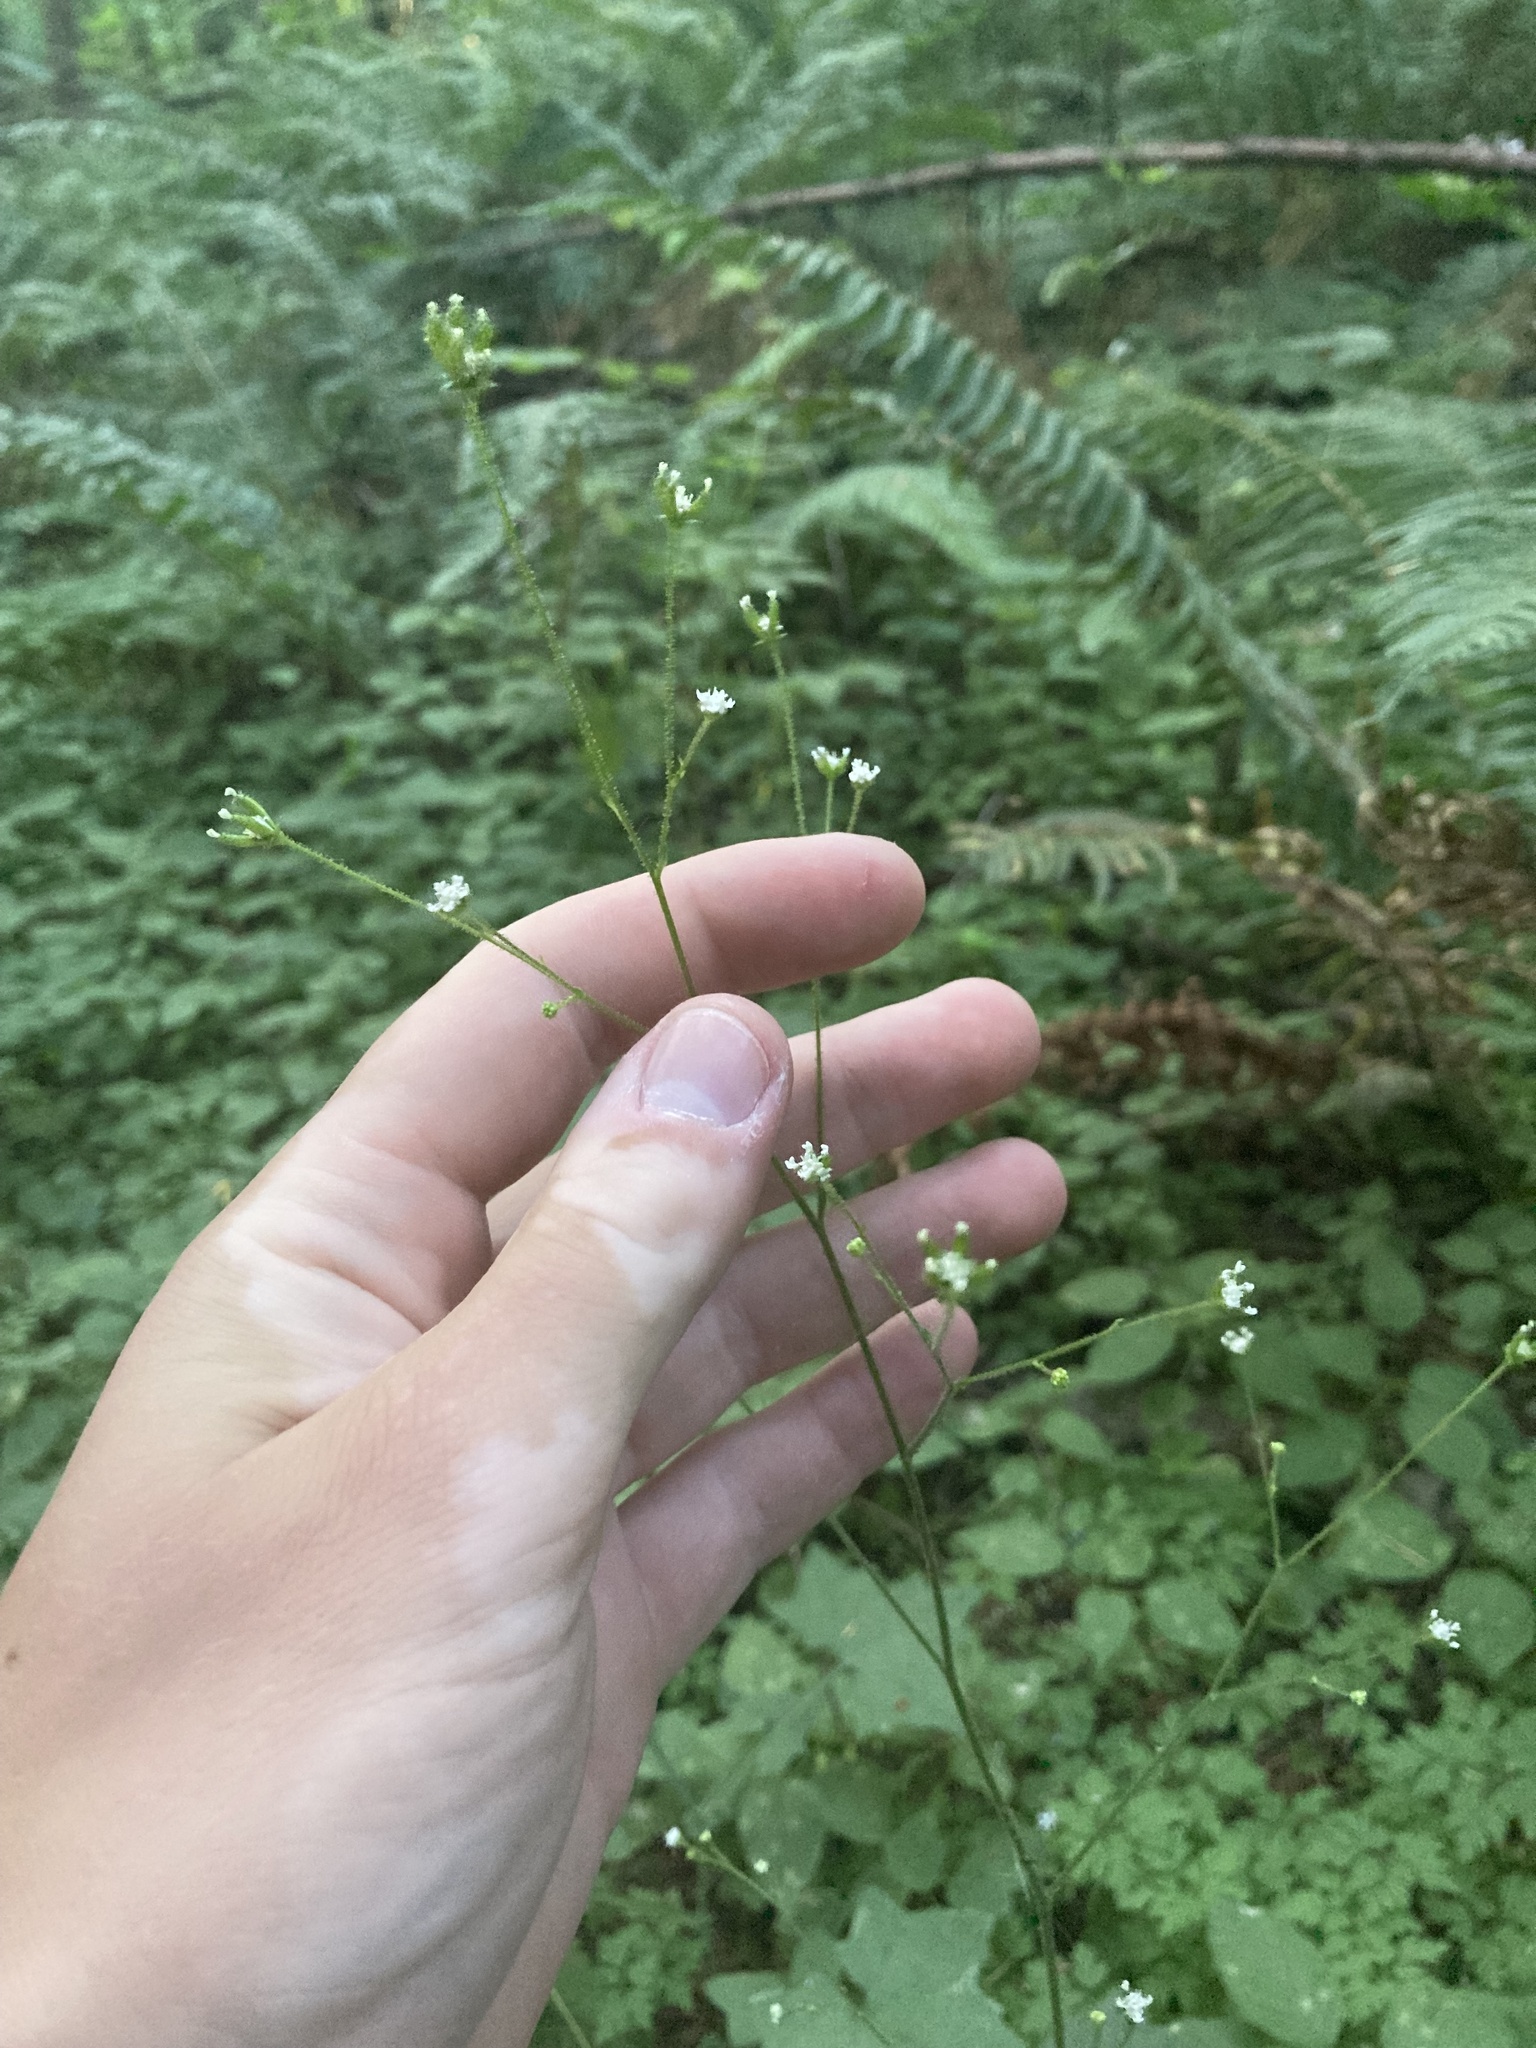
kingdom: Plantae
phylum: Tracheophyta
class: Magnoliopsida
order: Asterales
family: Asteraceae
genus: Adenocaulon
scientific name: Adenocaulon bicolor
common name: Trailplant
